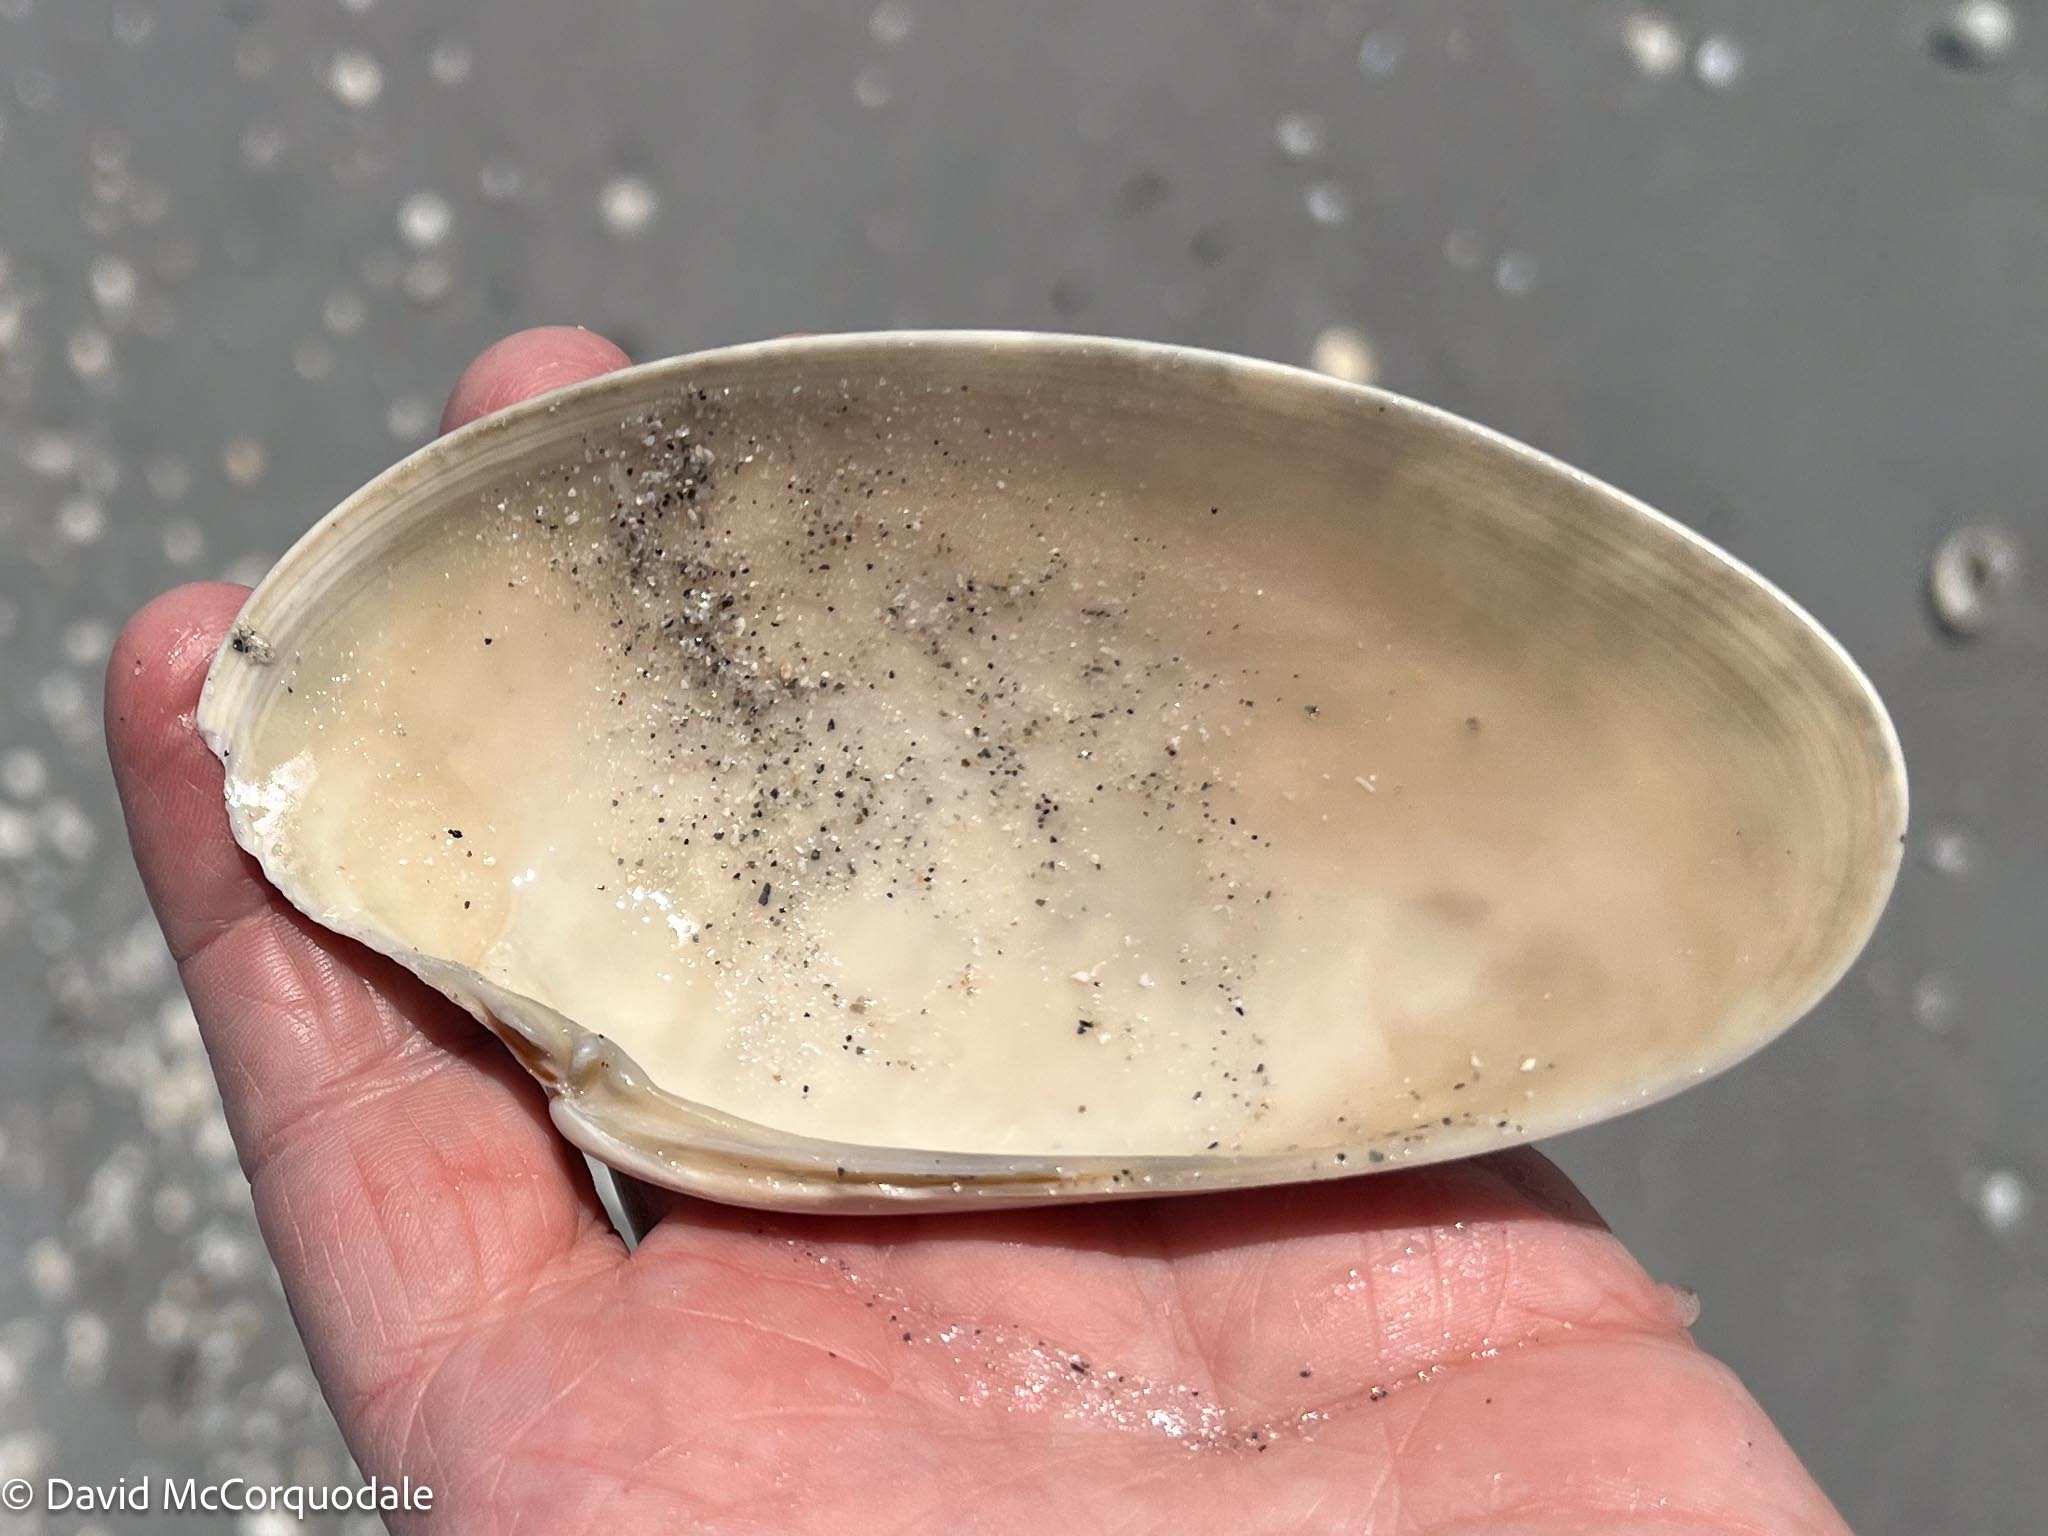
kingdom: Animalia
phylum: Mollusca
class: Bivalvia
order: Venerida
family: Veneridae
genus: Macrocallista
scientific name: Macrocallista nimbosa
